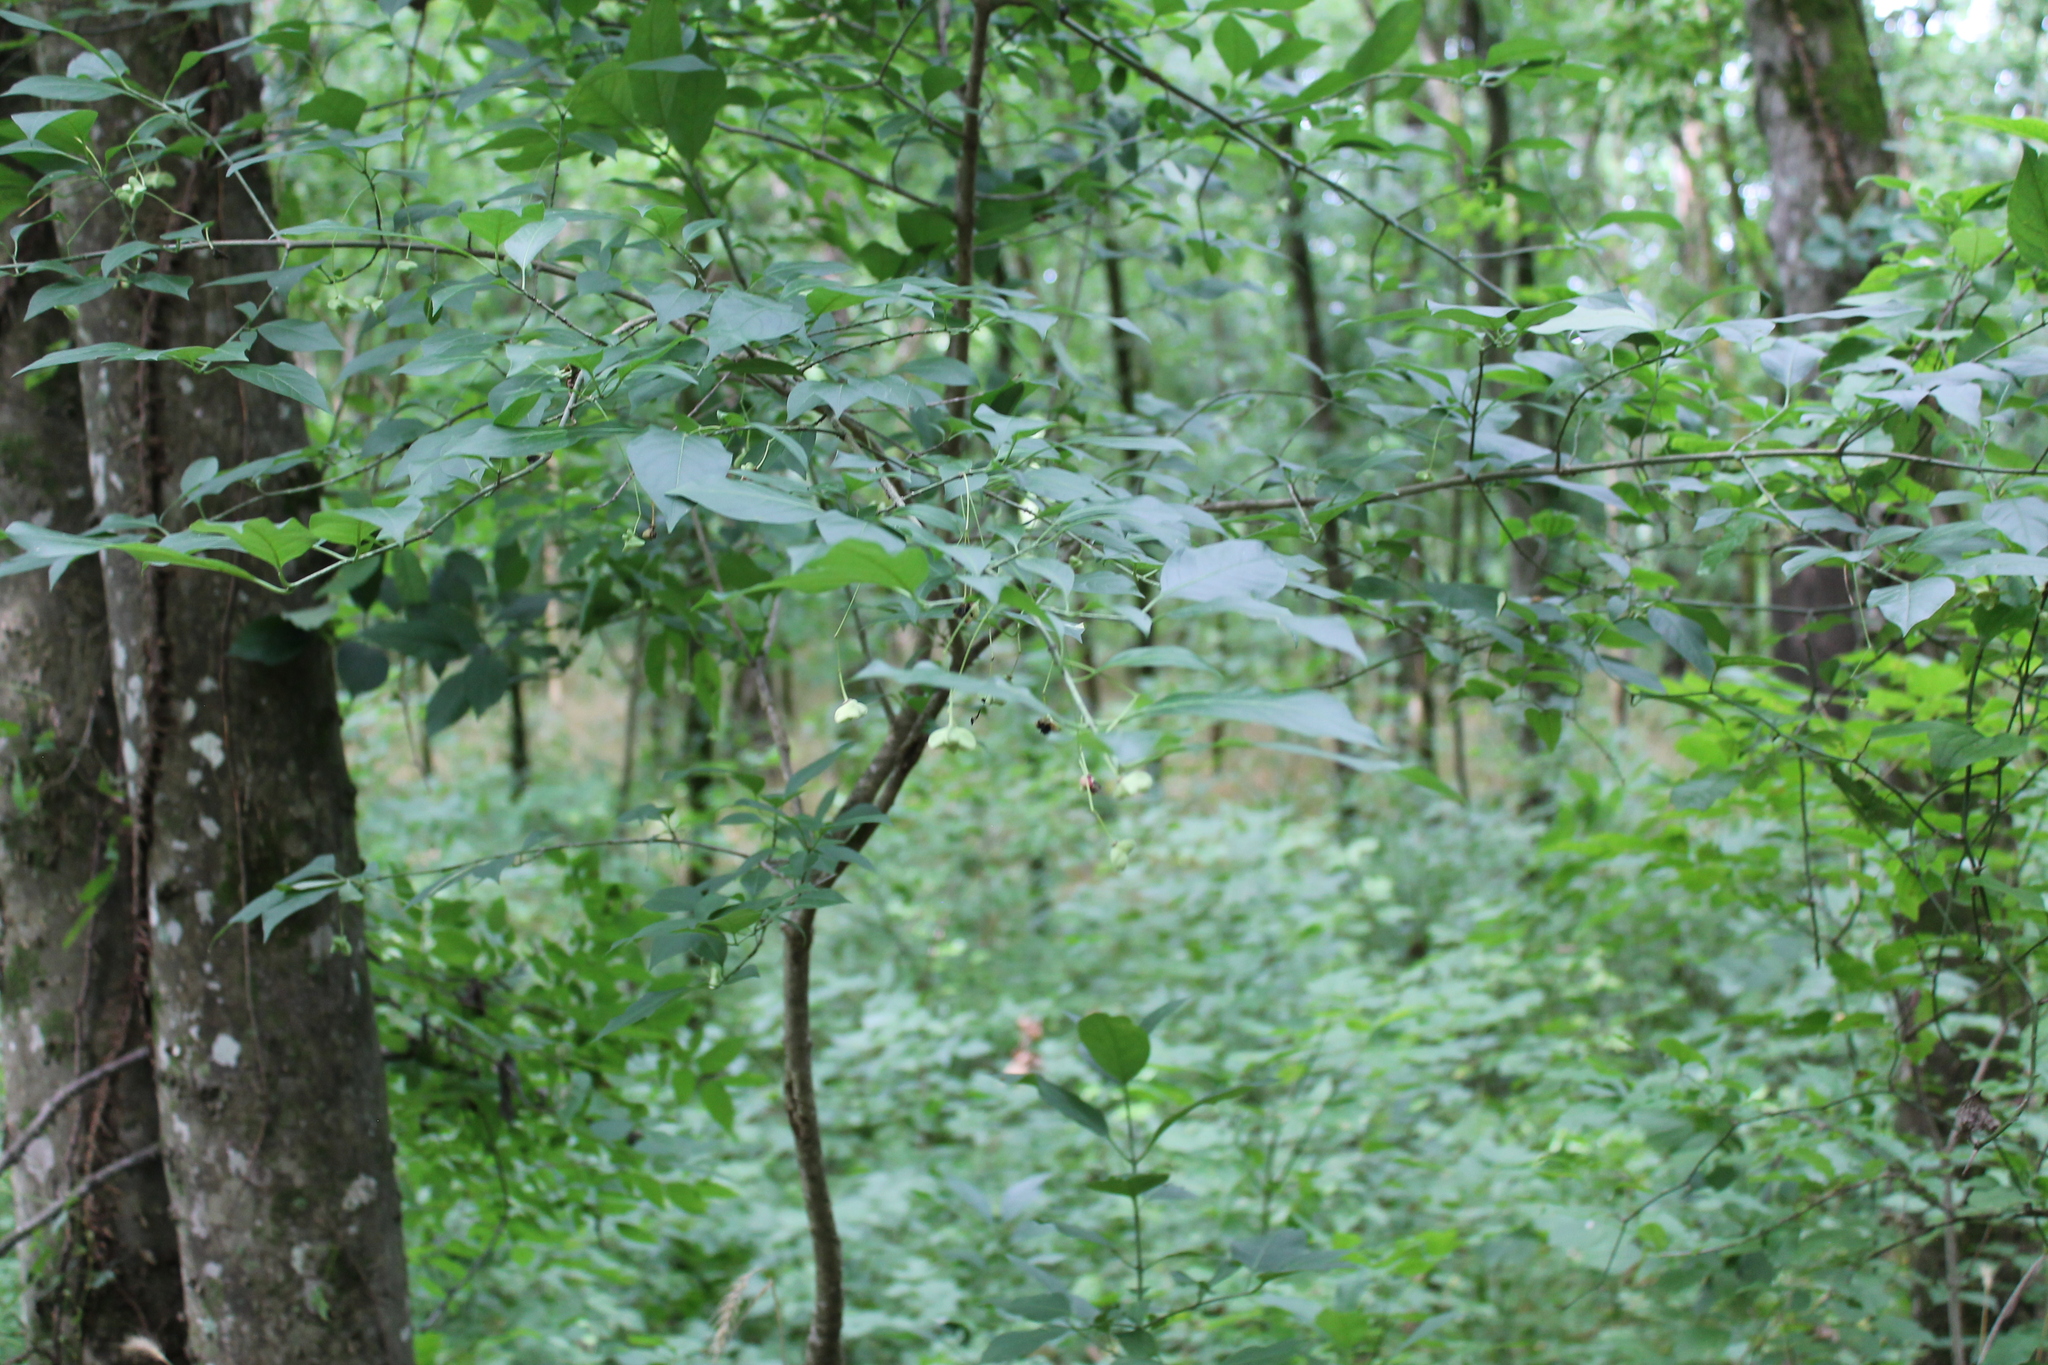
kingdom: Plantae
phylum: Tracheophyta
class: Magnoliopsida
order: Celastrales
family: Celastraceae
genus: Euonymus
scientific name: Euonymus atropurpureus
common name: Eastern wahoo
